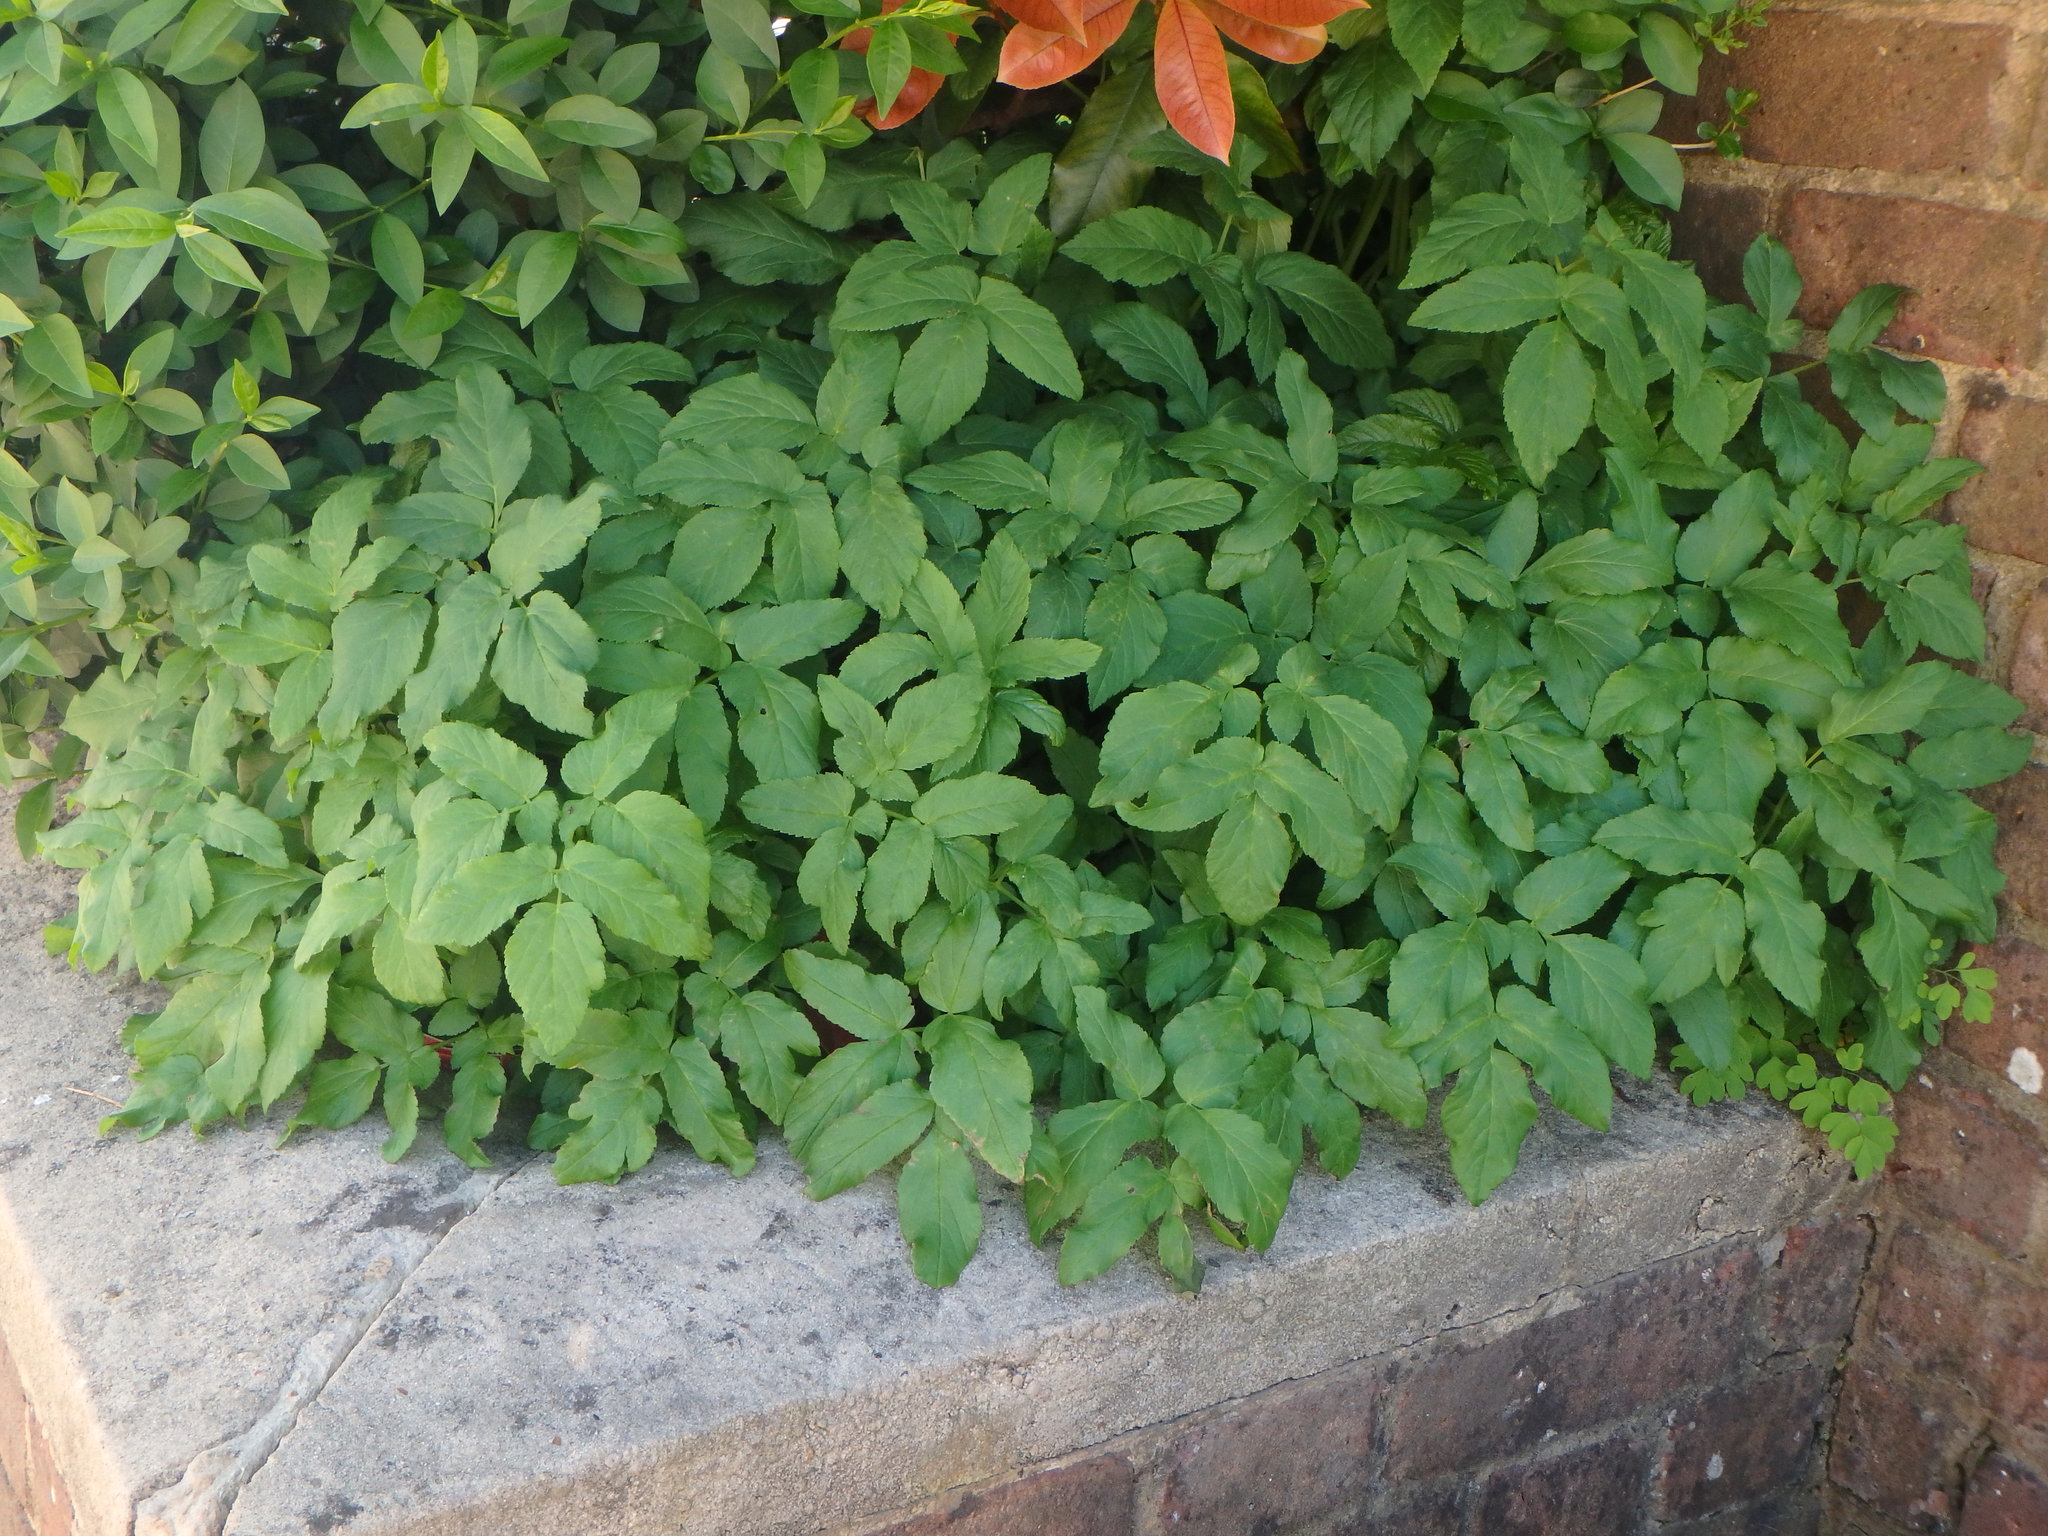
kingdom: Plantae
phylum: Tracheophyta
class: Magnoliopsida
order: Apiales
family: Apiaceae
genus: Aegopodium
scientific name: Aegopodium podagraria
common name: Ground-elder
